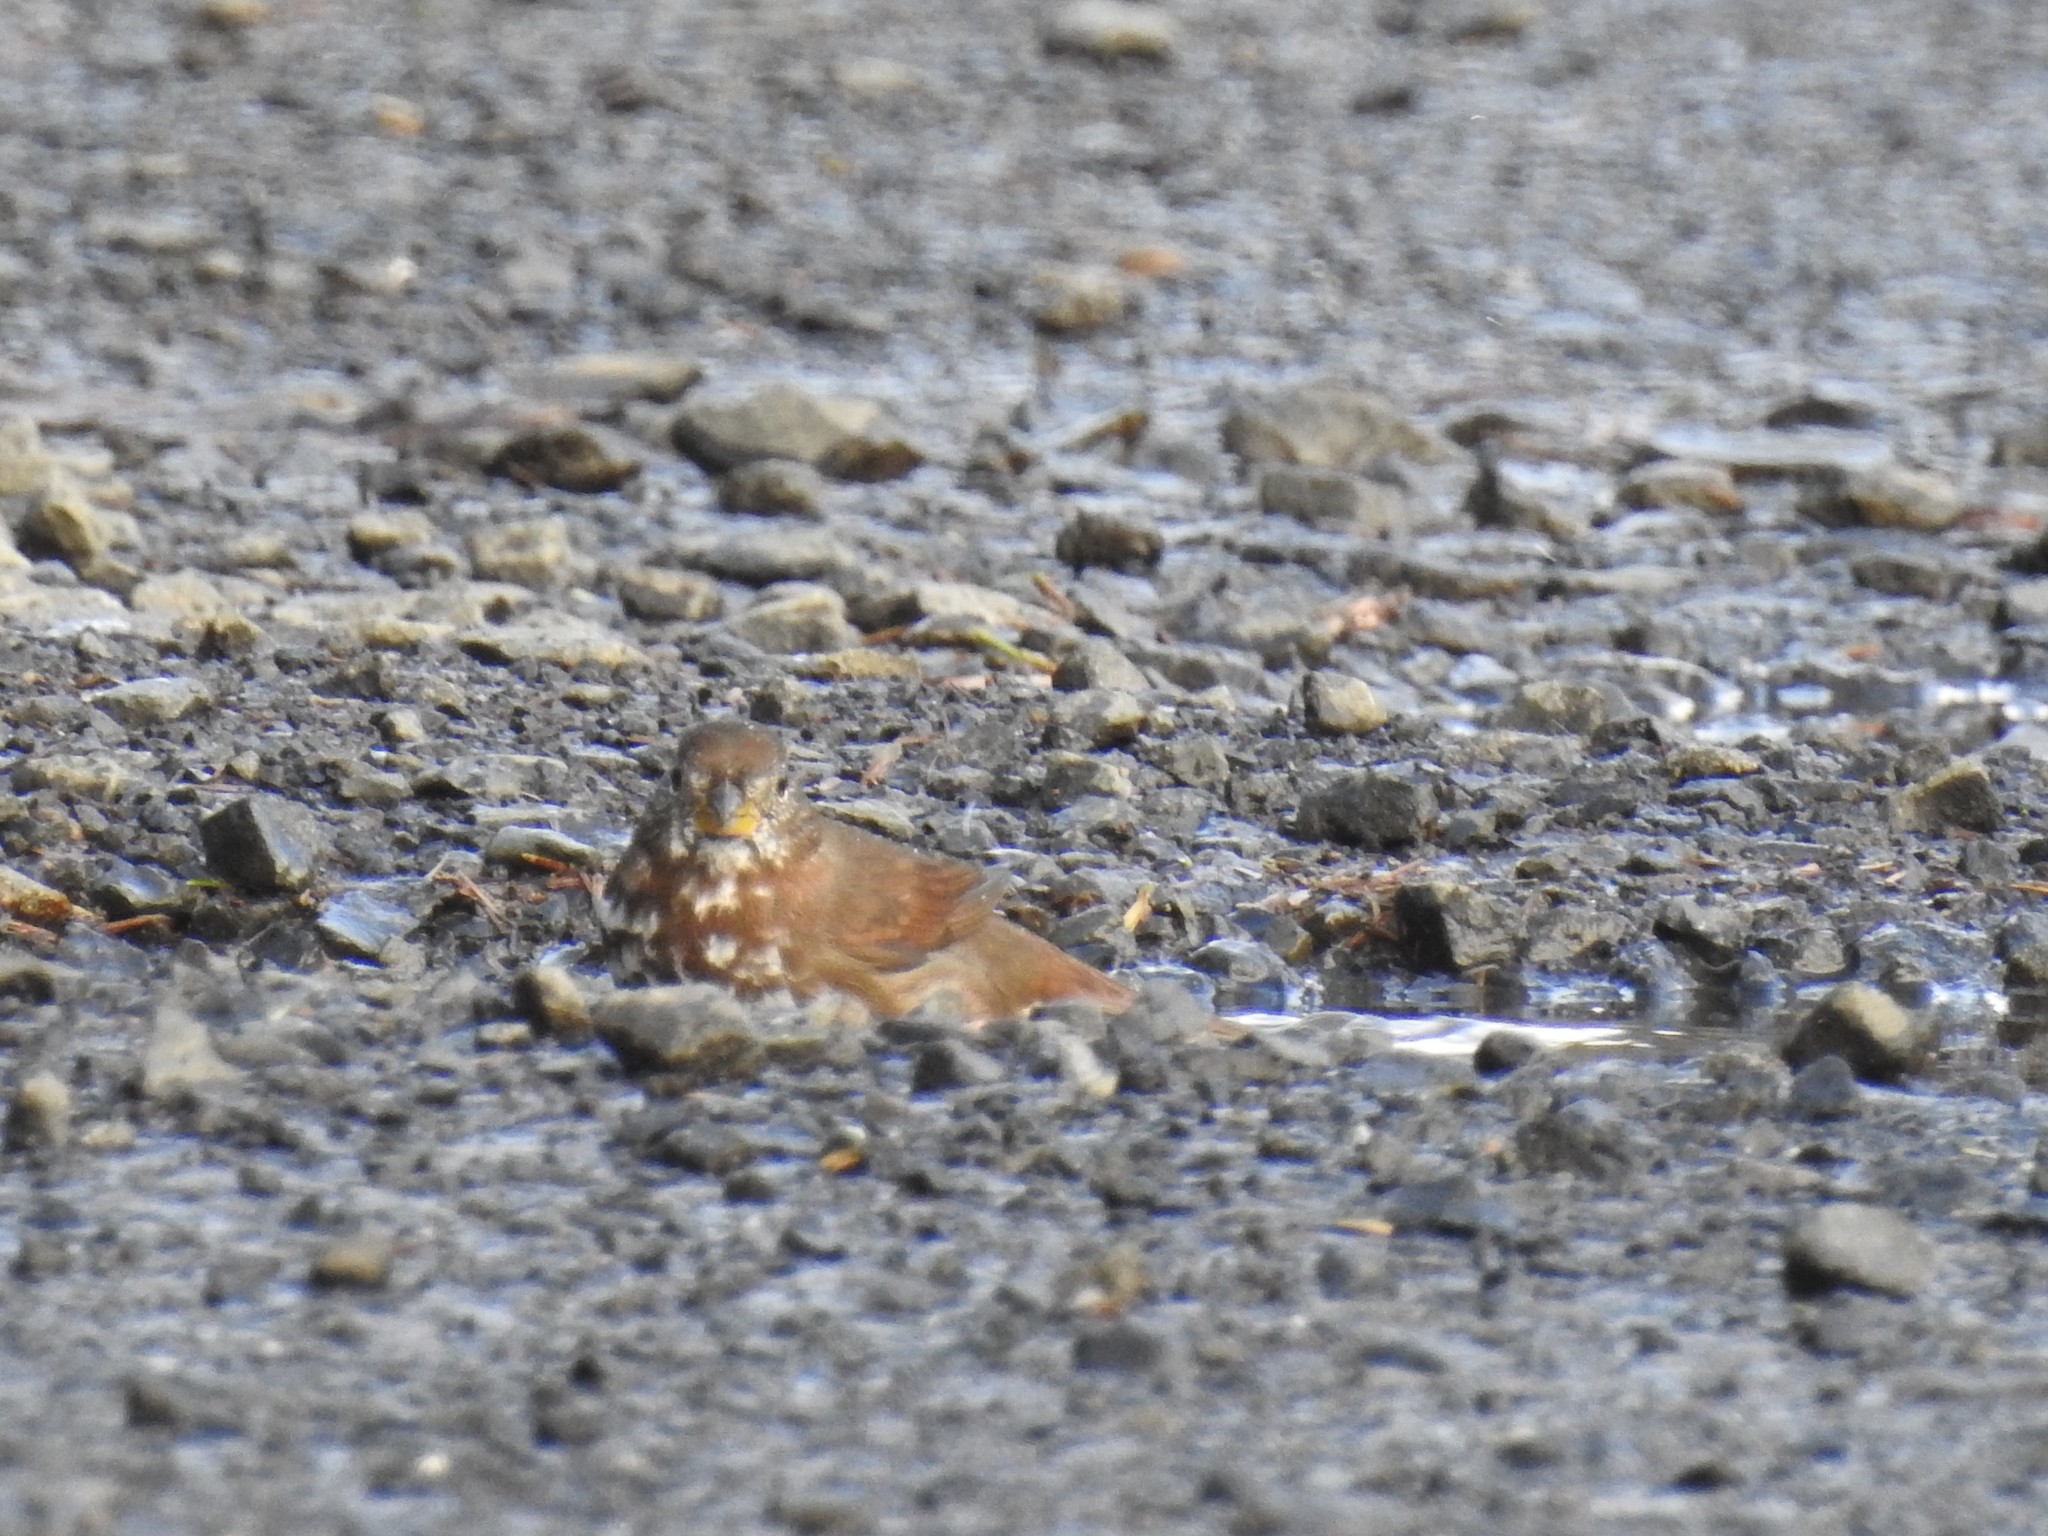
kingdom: Animalia
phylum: Chordata
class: Aves
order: Passeriformes
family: Passerellidae
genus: Passerella
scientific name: Passerella iliaca
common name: Fox sparrow
